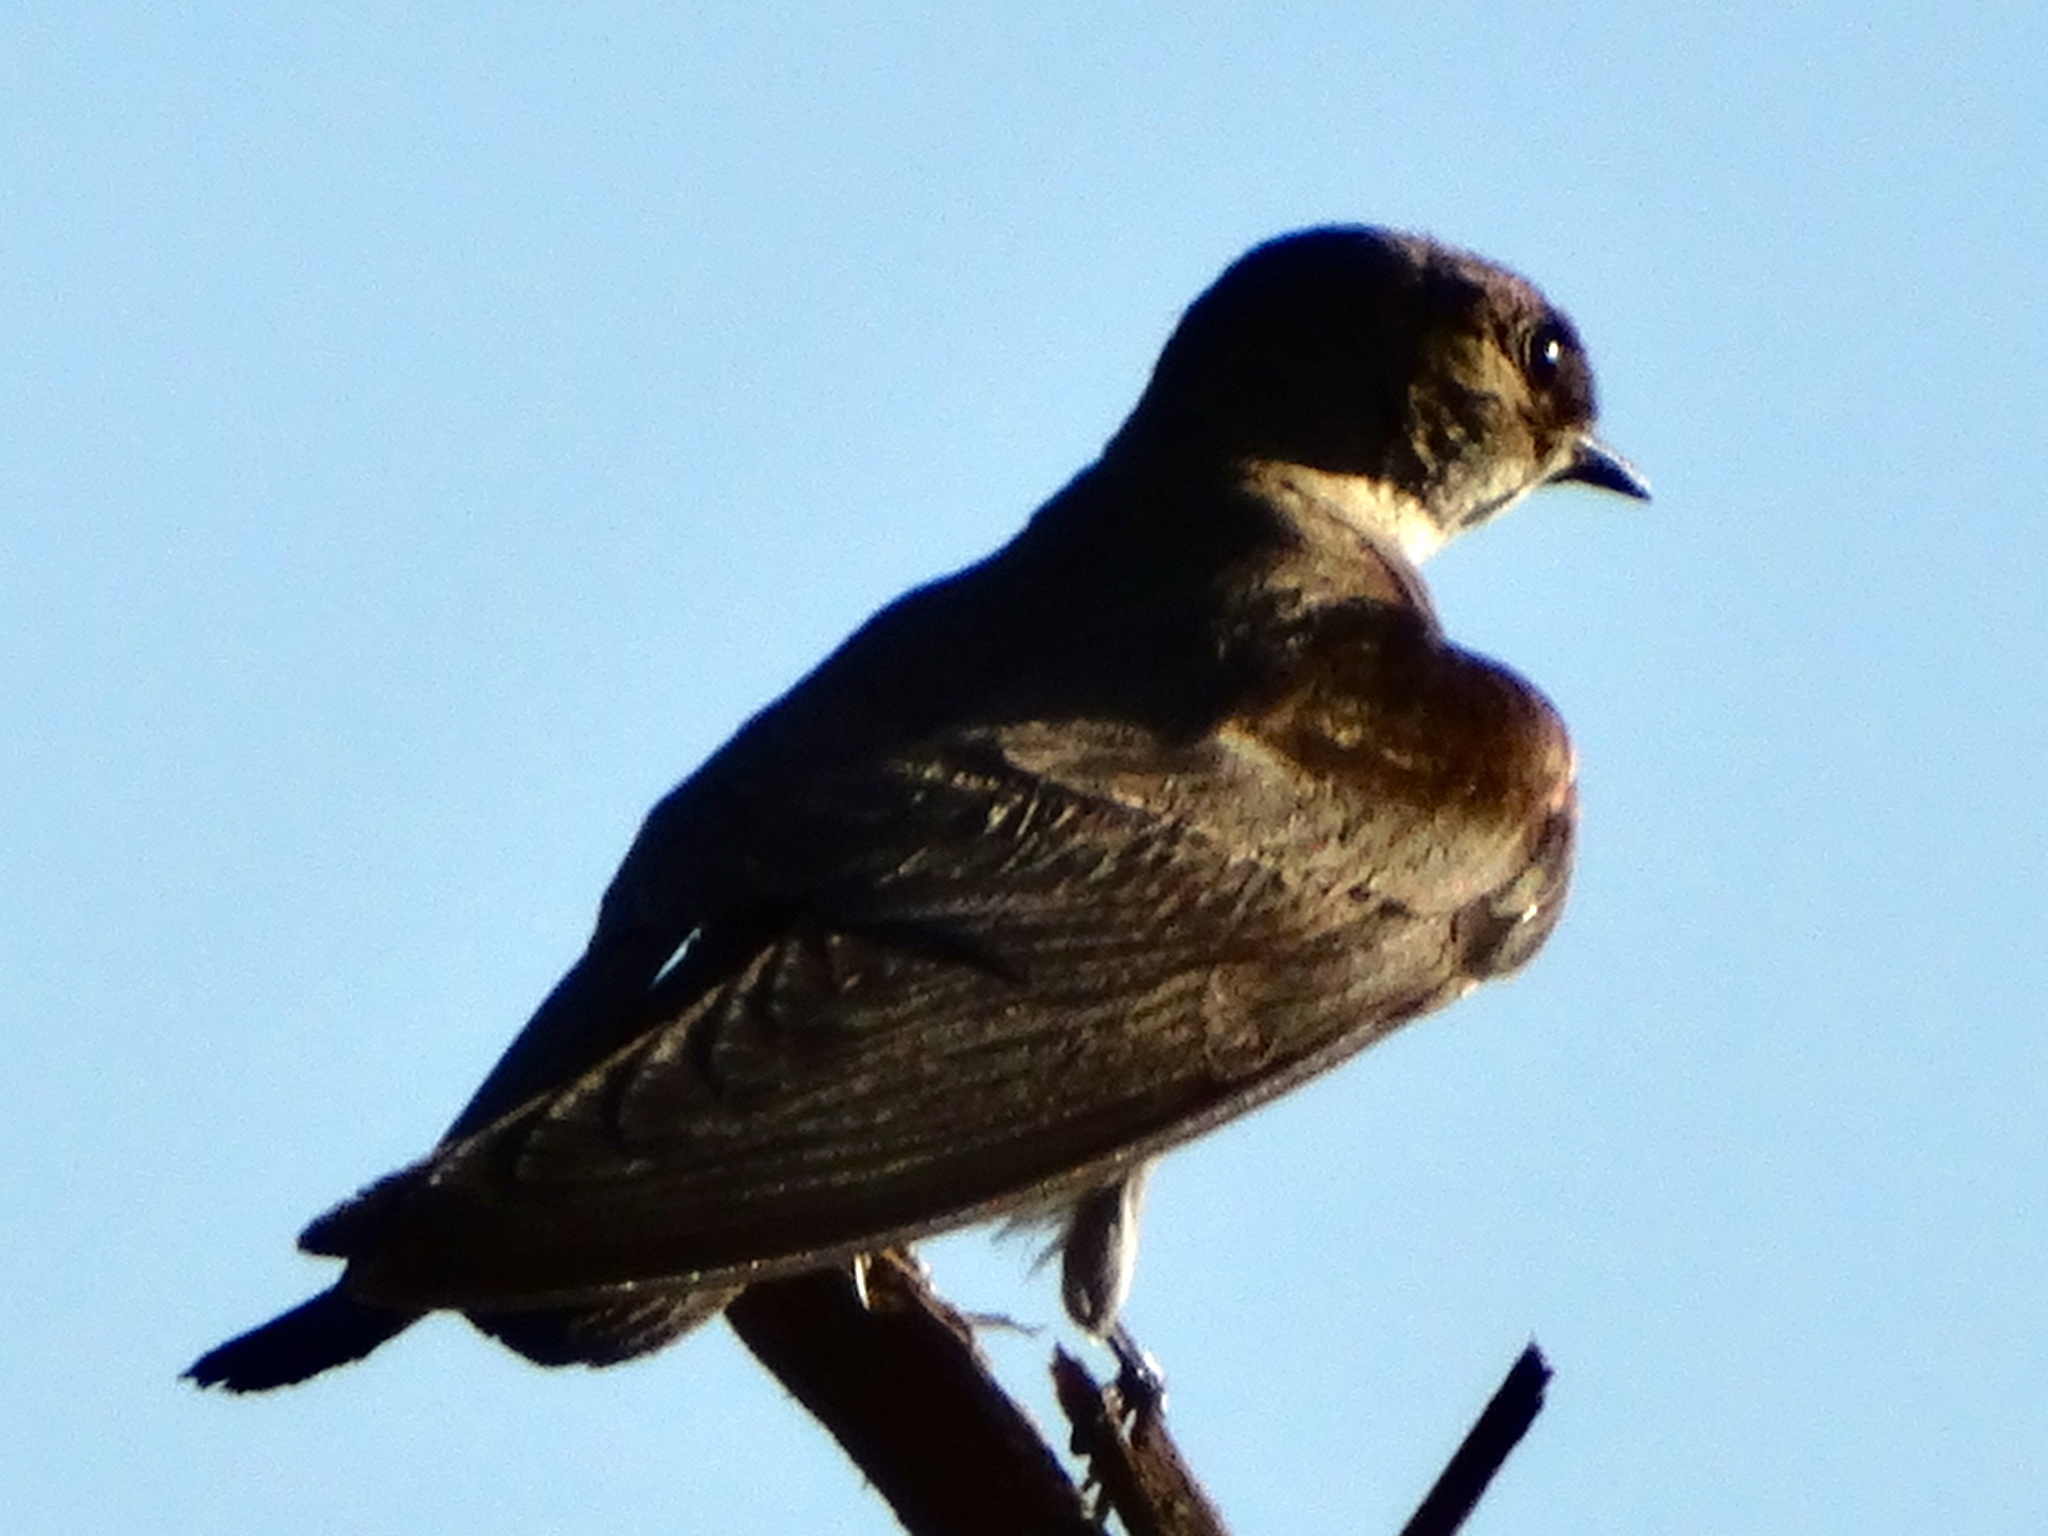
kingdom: Animalia
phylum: Chordata
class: Aves
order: Passeriformes
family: Hirundinidae
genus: Stelgidopteryx
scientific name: Stelgidopteryx serripennis
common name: Northern rough-winged swallow
